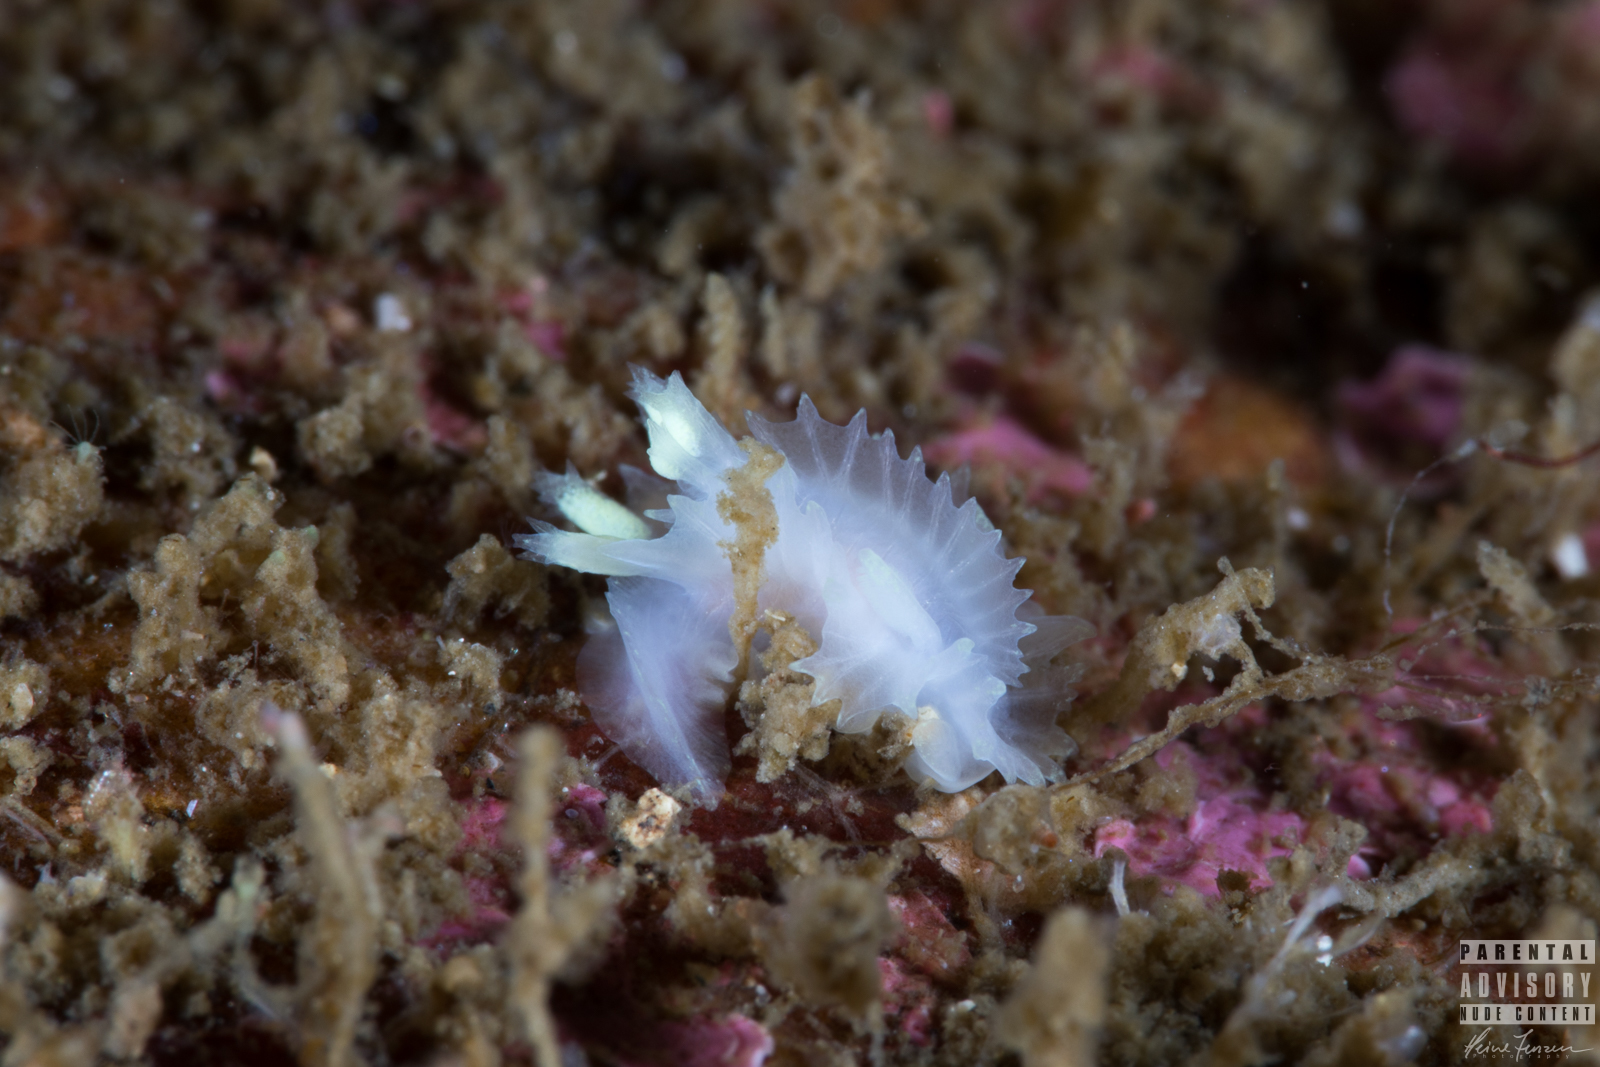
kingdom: Animalia
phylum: Mollusca
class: Gastropoda
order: Nudibranchia
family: Goniodorididae
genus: Lophodoris
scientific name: Lophodoris danielsseni
